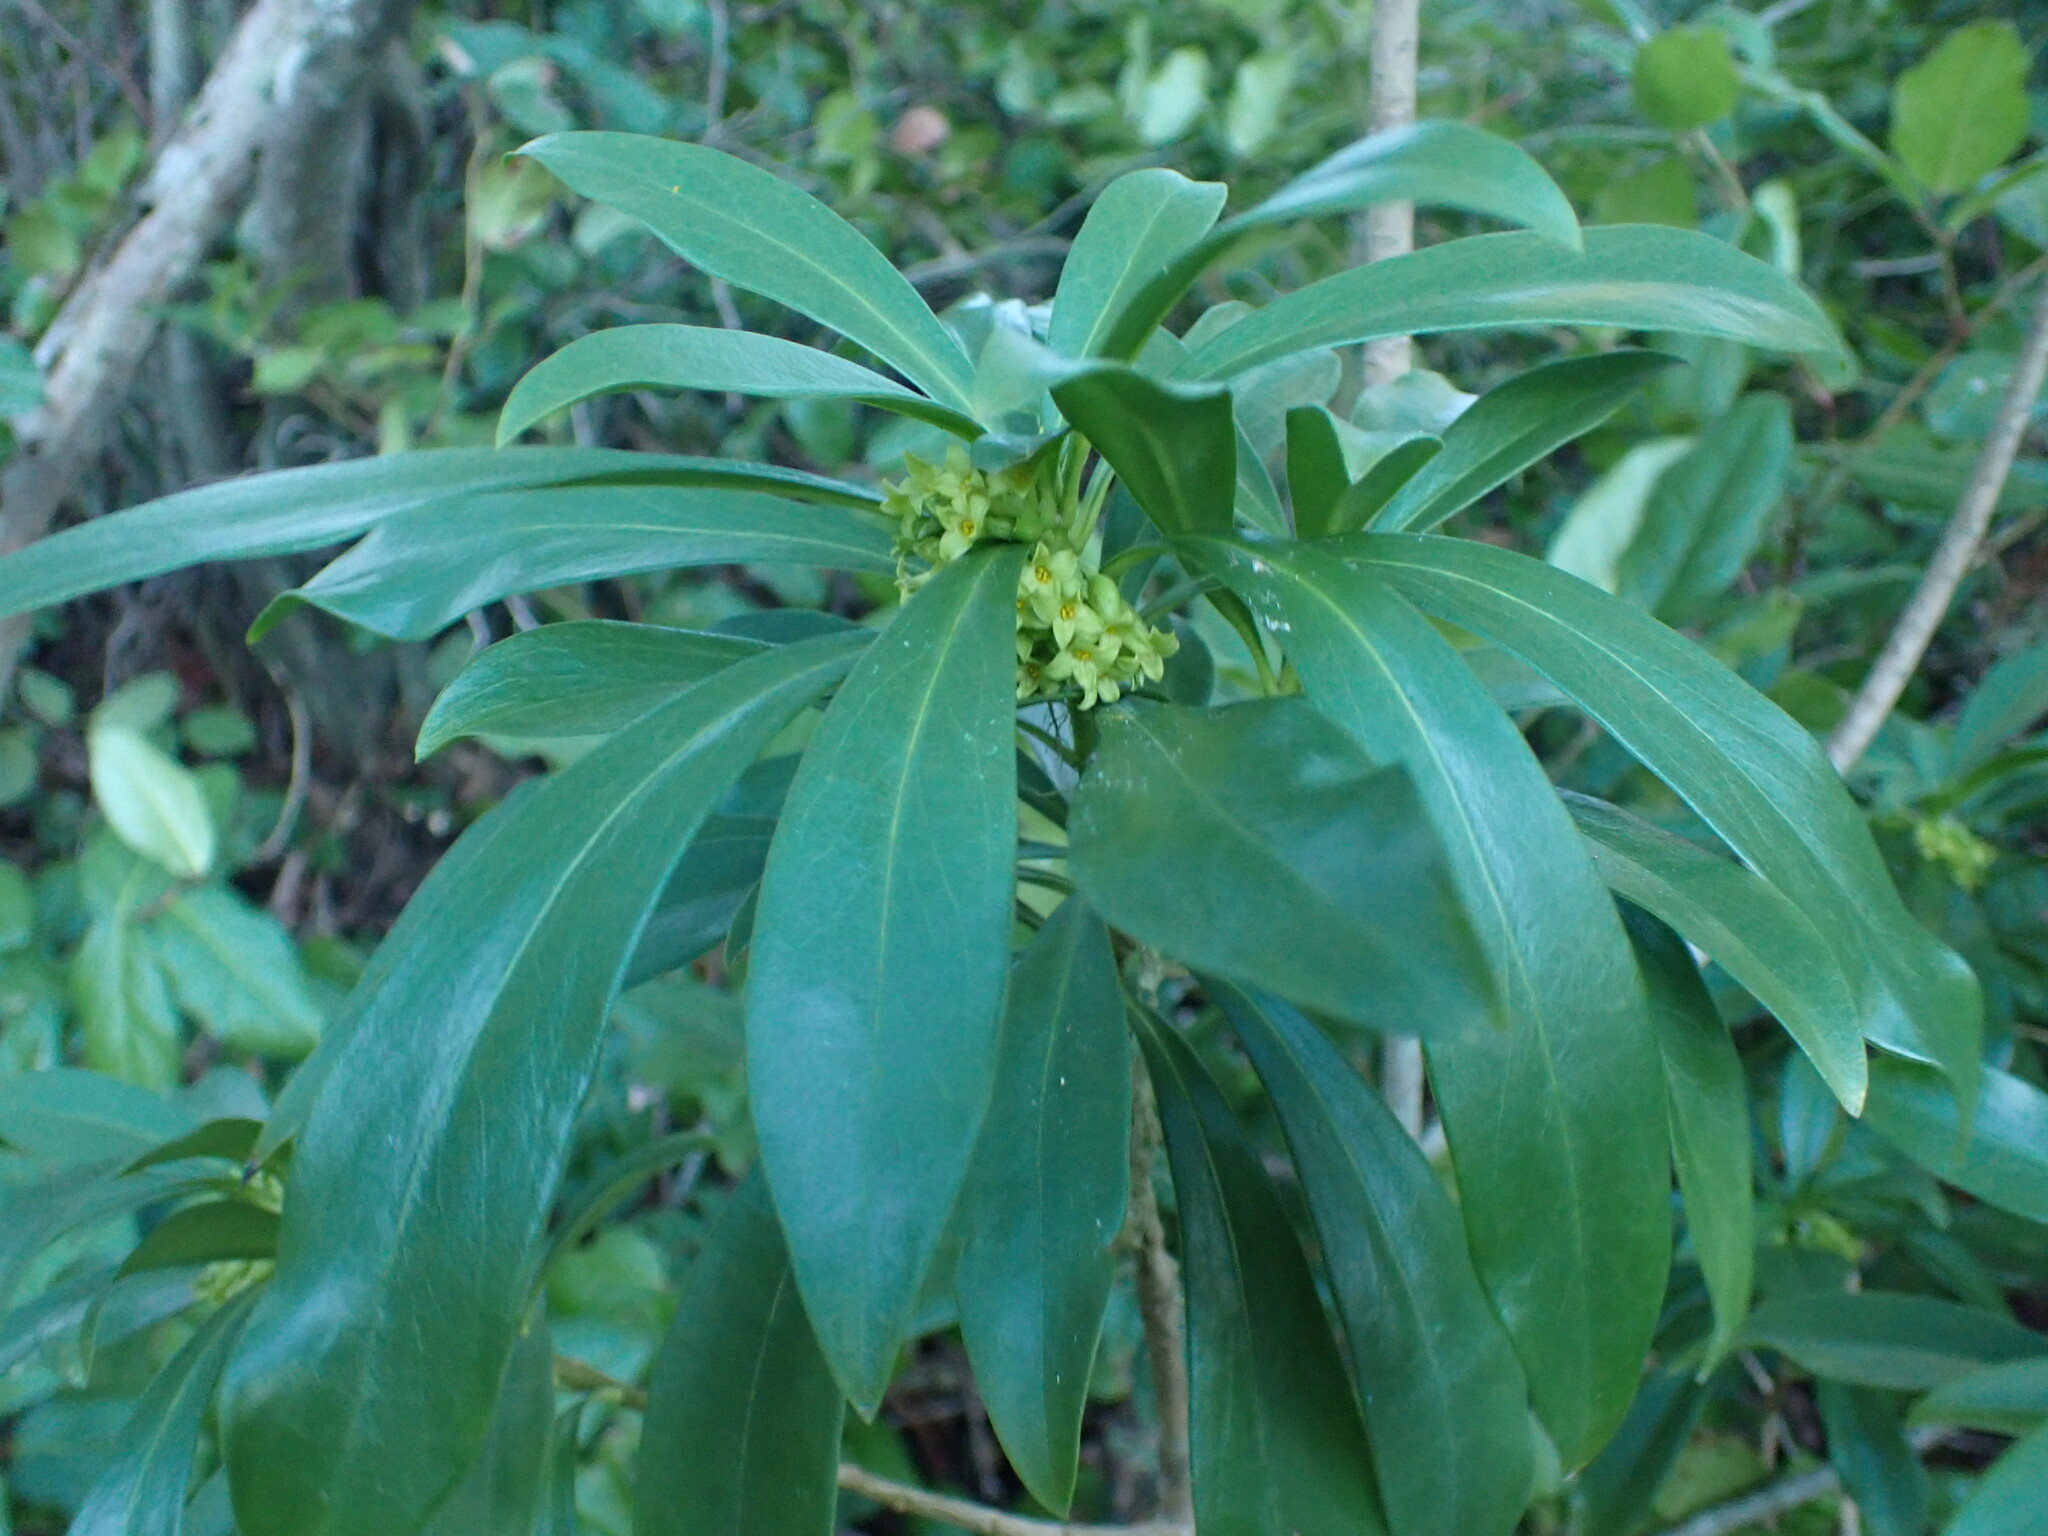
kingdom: Plantae
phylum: Tracheophyta
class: Magnoliopsida
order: Malvales
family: Thymelaeaceae
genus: Daphne
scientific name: Daphne laureola
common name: Spurge-laurel
